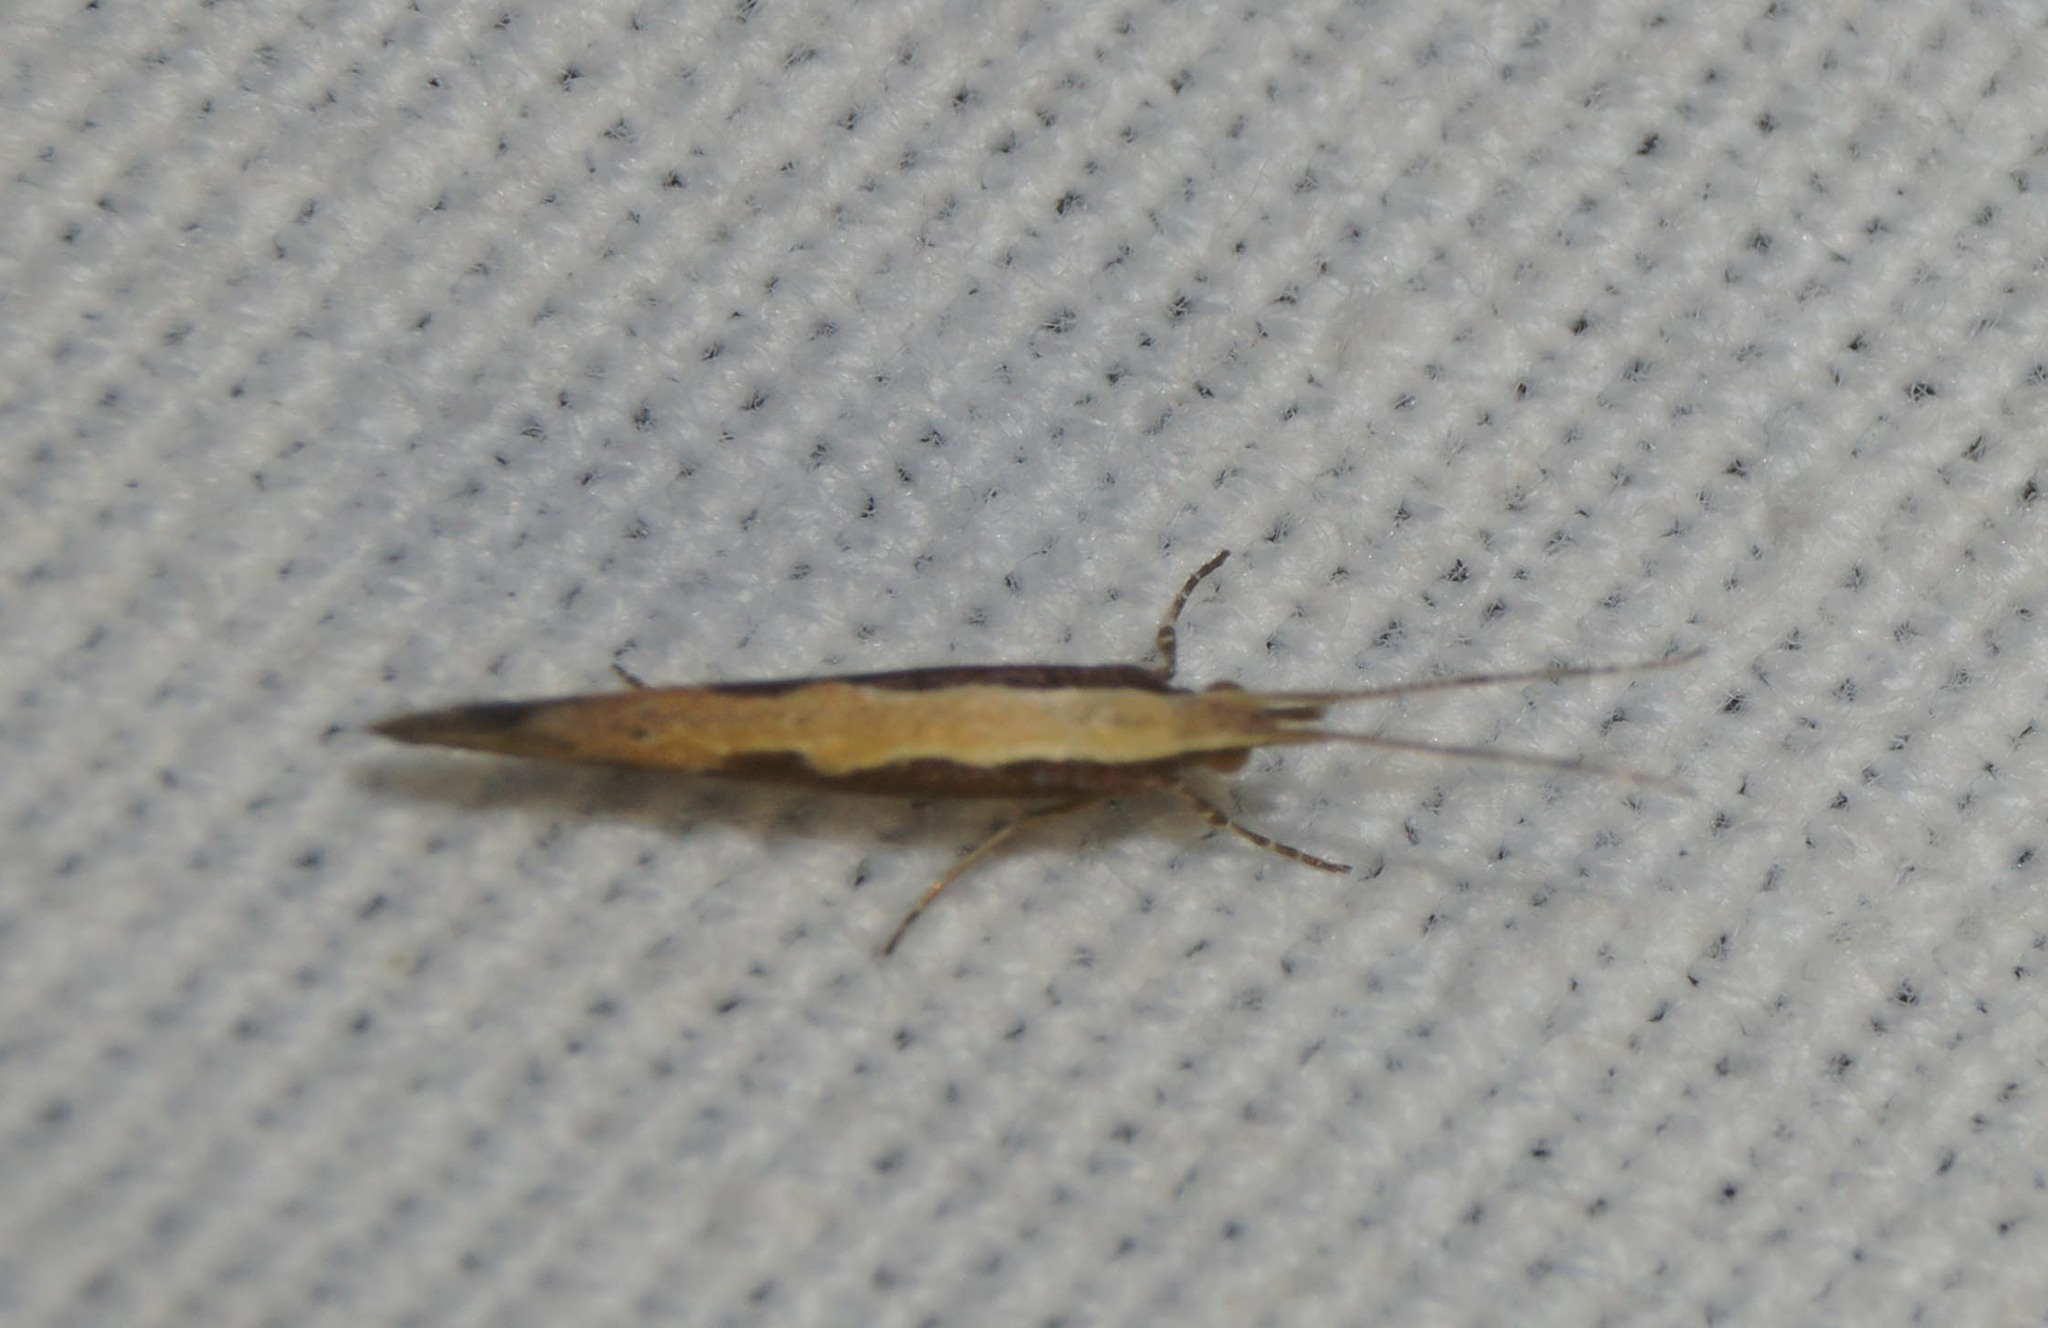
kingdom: Animalia
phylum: Arthropoda
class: Insecta
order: Lepidoptera
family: Plutellidae
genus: Plutella
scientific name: Plutella xylostella
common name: Diamond-back moth
